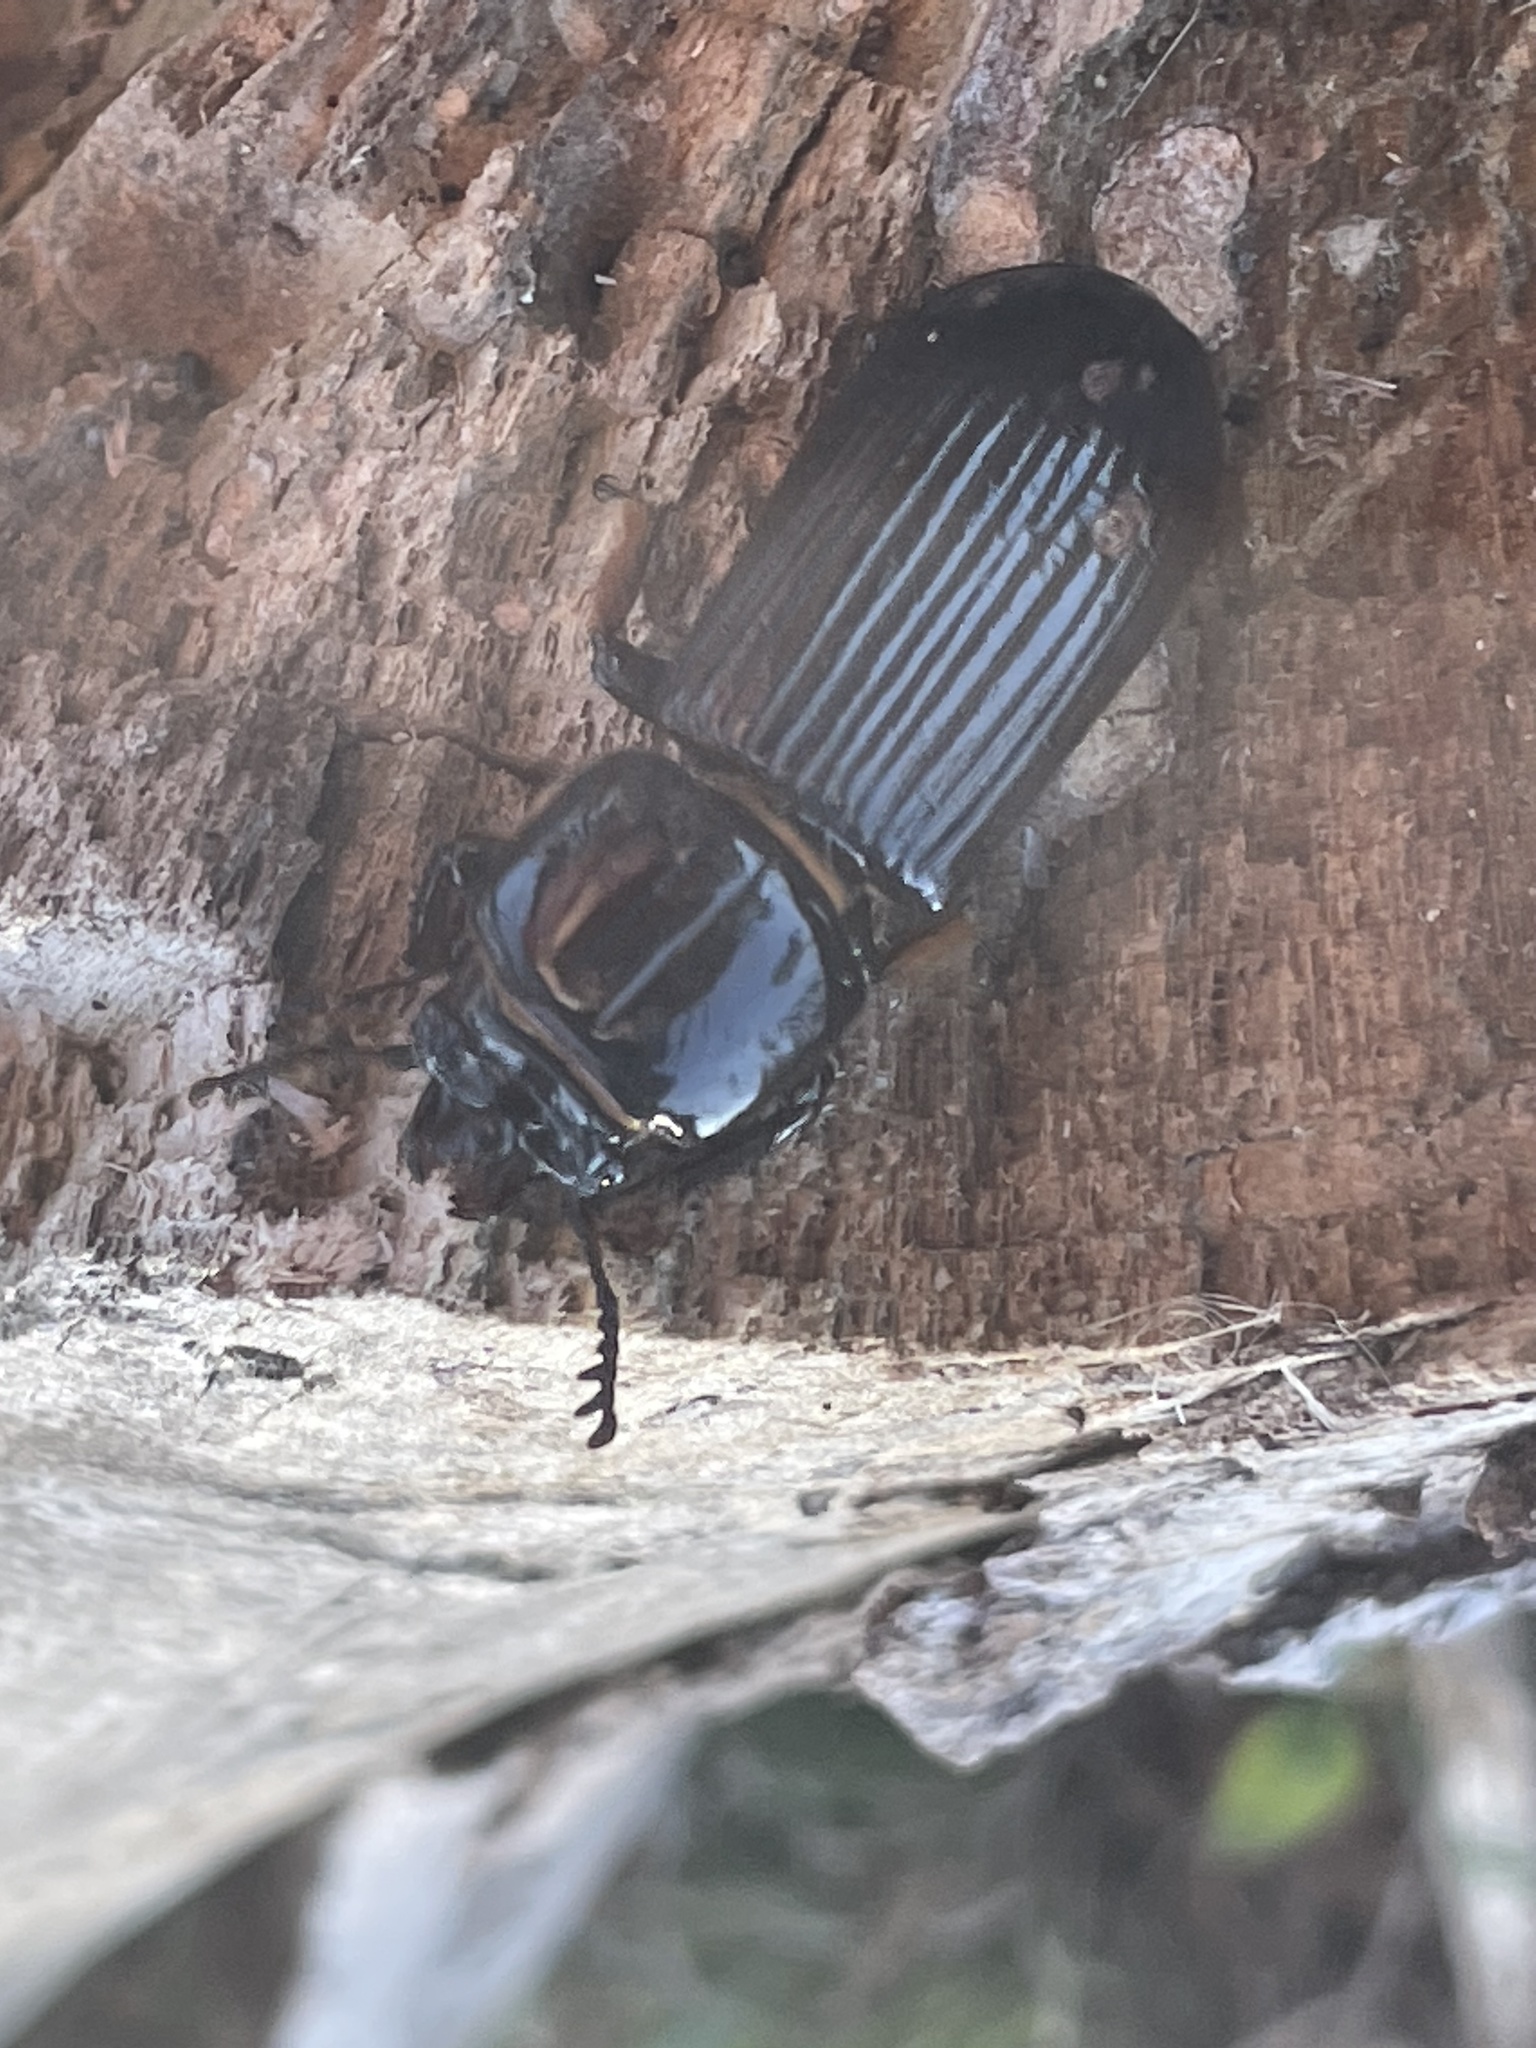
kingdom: Animalia
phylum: Arthropoda
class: Insecta
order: Coleoptera
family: Passalidae
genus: Odontotaenius
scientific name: Odontotaenius disjunctus
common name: Patent leather beetle
